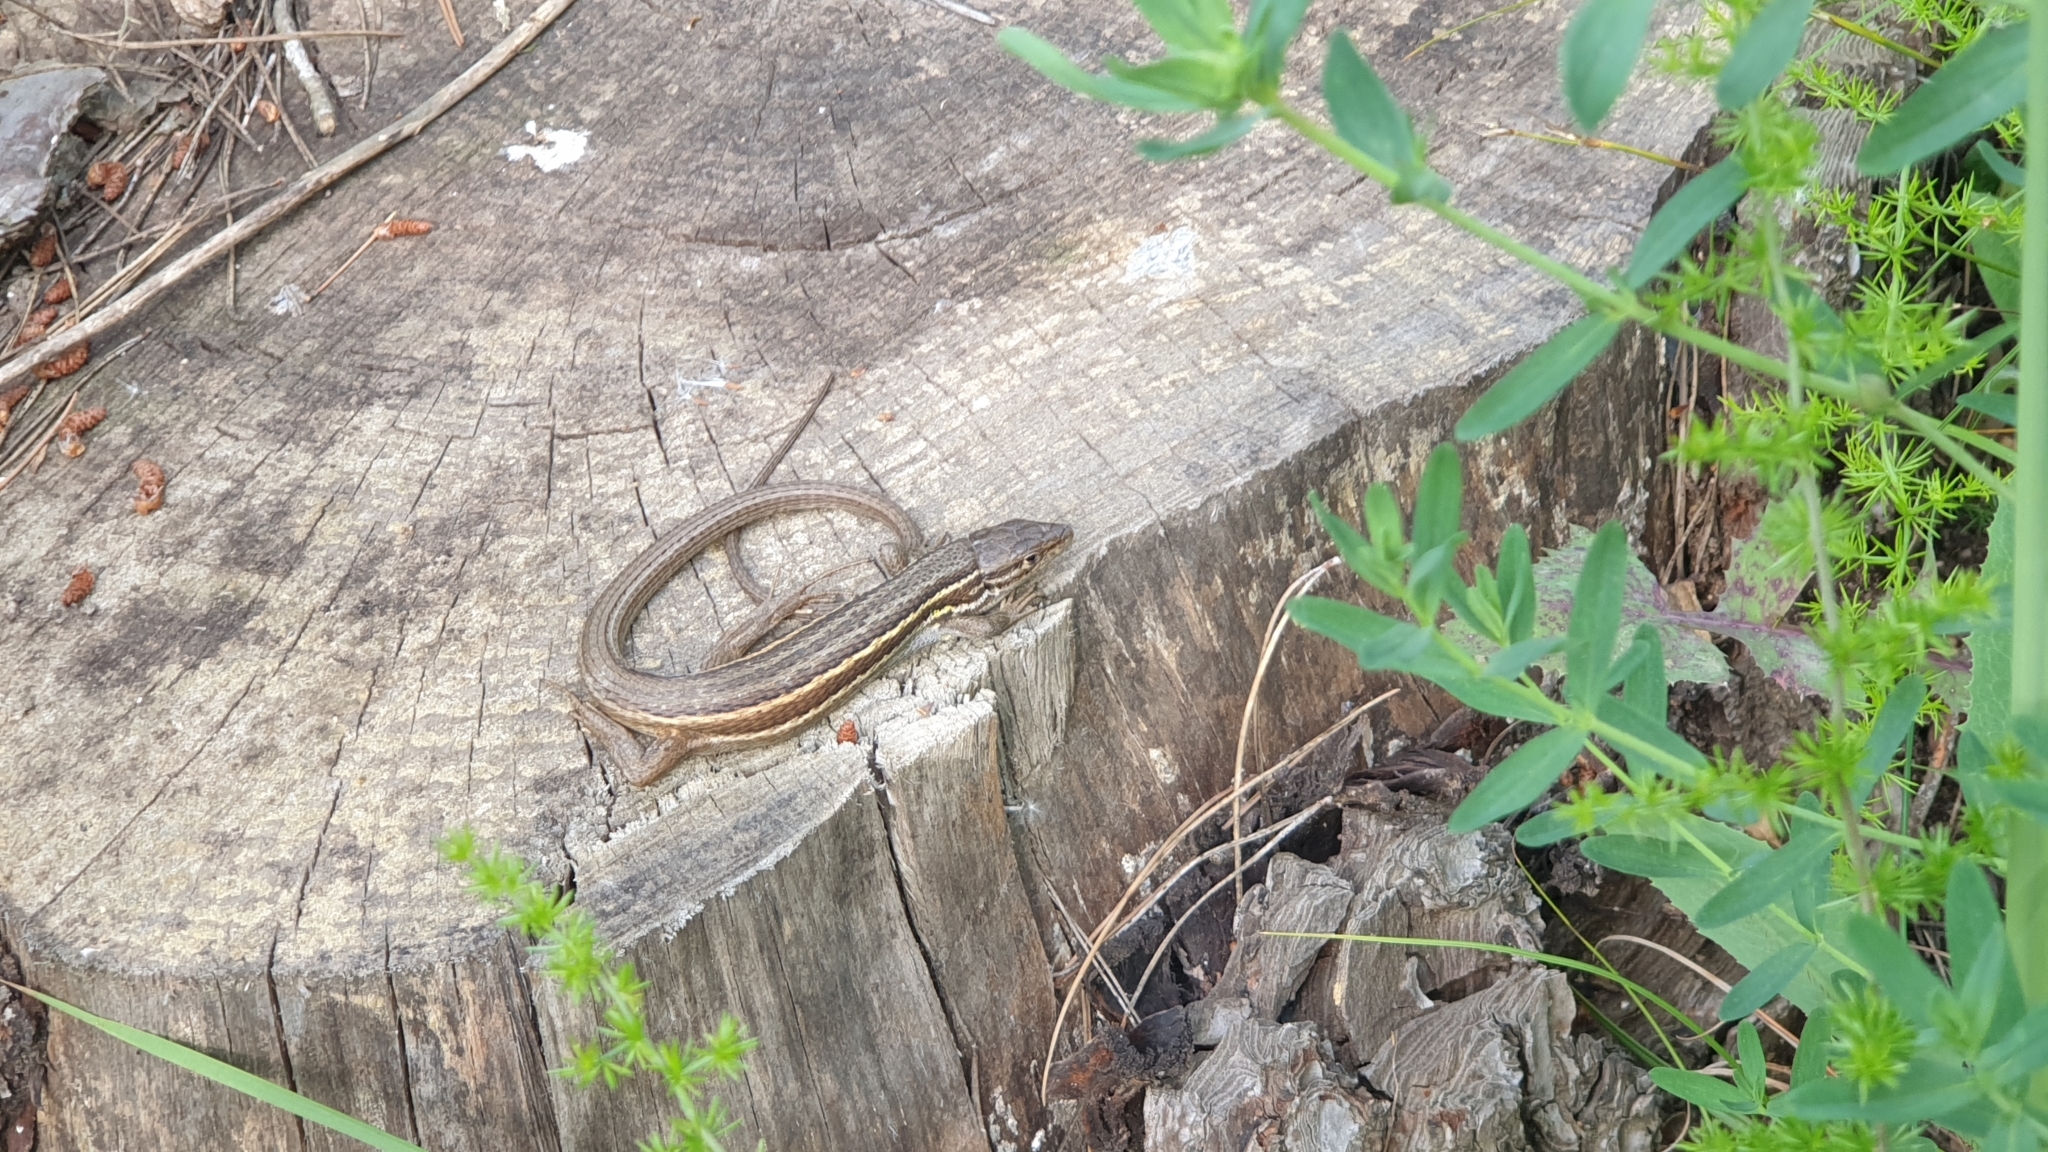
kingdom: Animalia
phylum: Chordata
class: Squamata
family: Lacertidae
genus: Psammodromus
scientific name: Psammodromus algirus
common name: Algerian psammodromus
